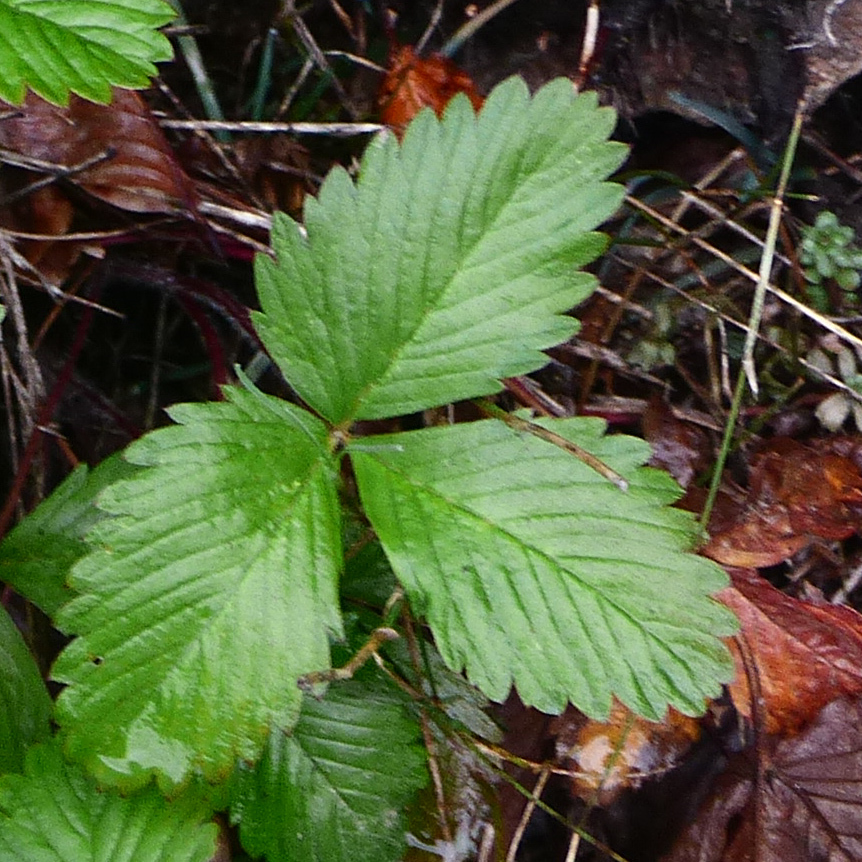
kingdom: Plantae
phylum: Tracheophyta
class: Magnoliopsida
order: Rosales
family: Rosaceae
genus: Fragaria
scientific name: Fragaria viridis
